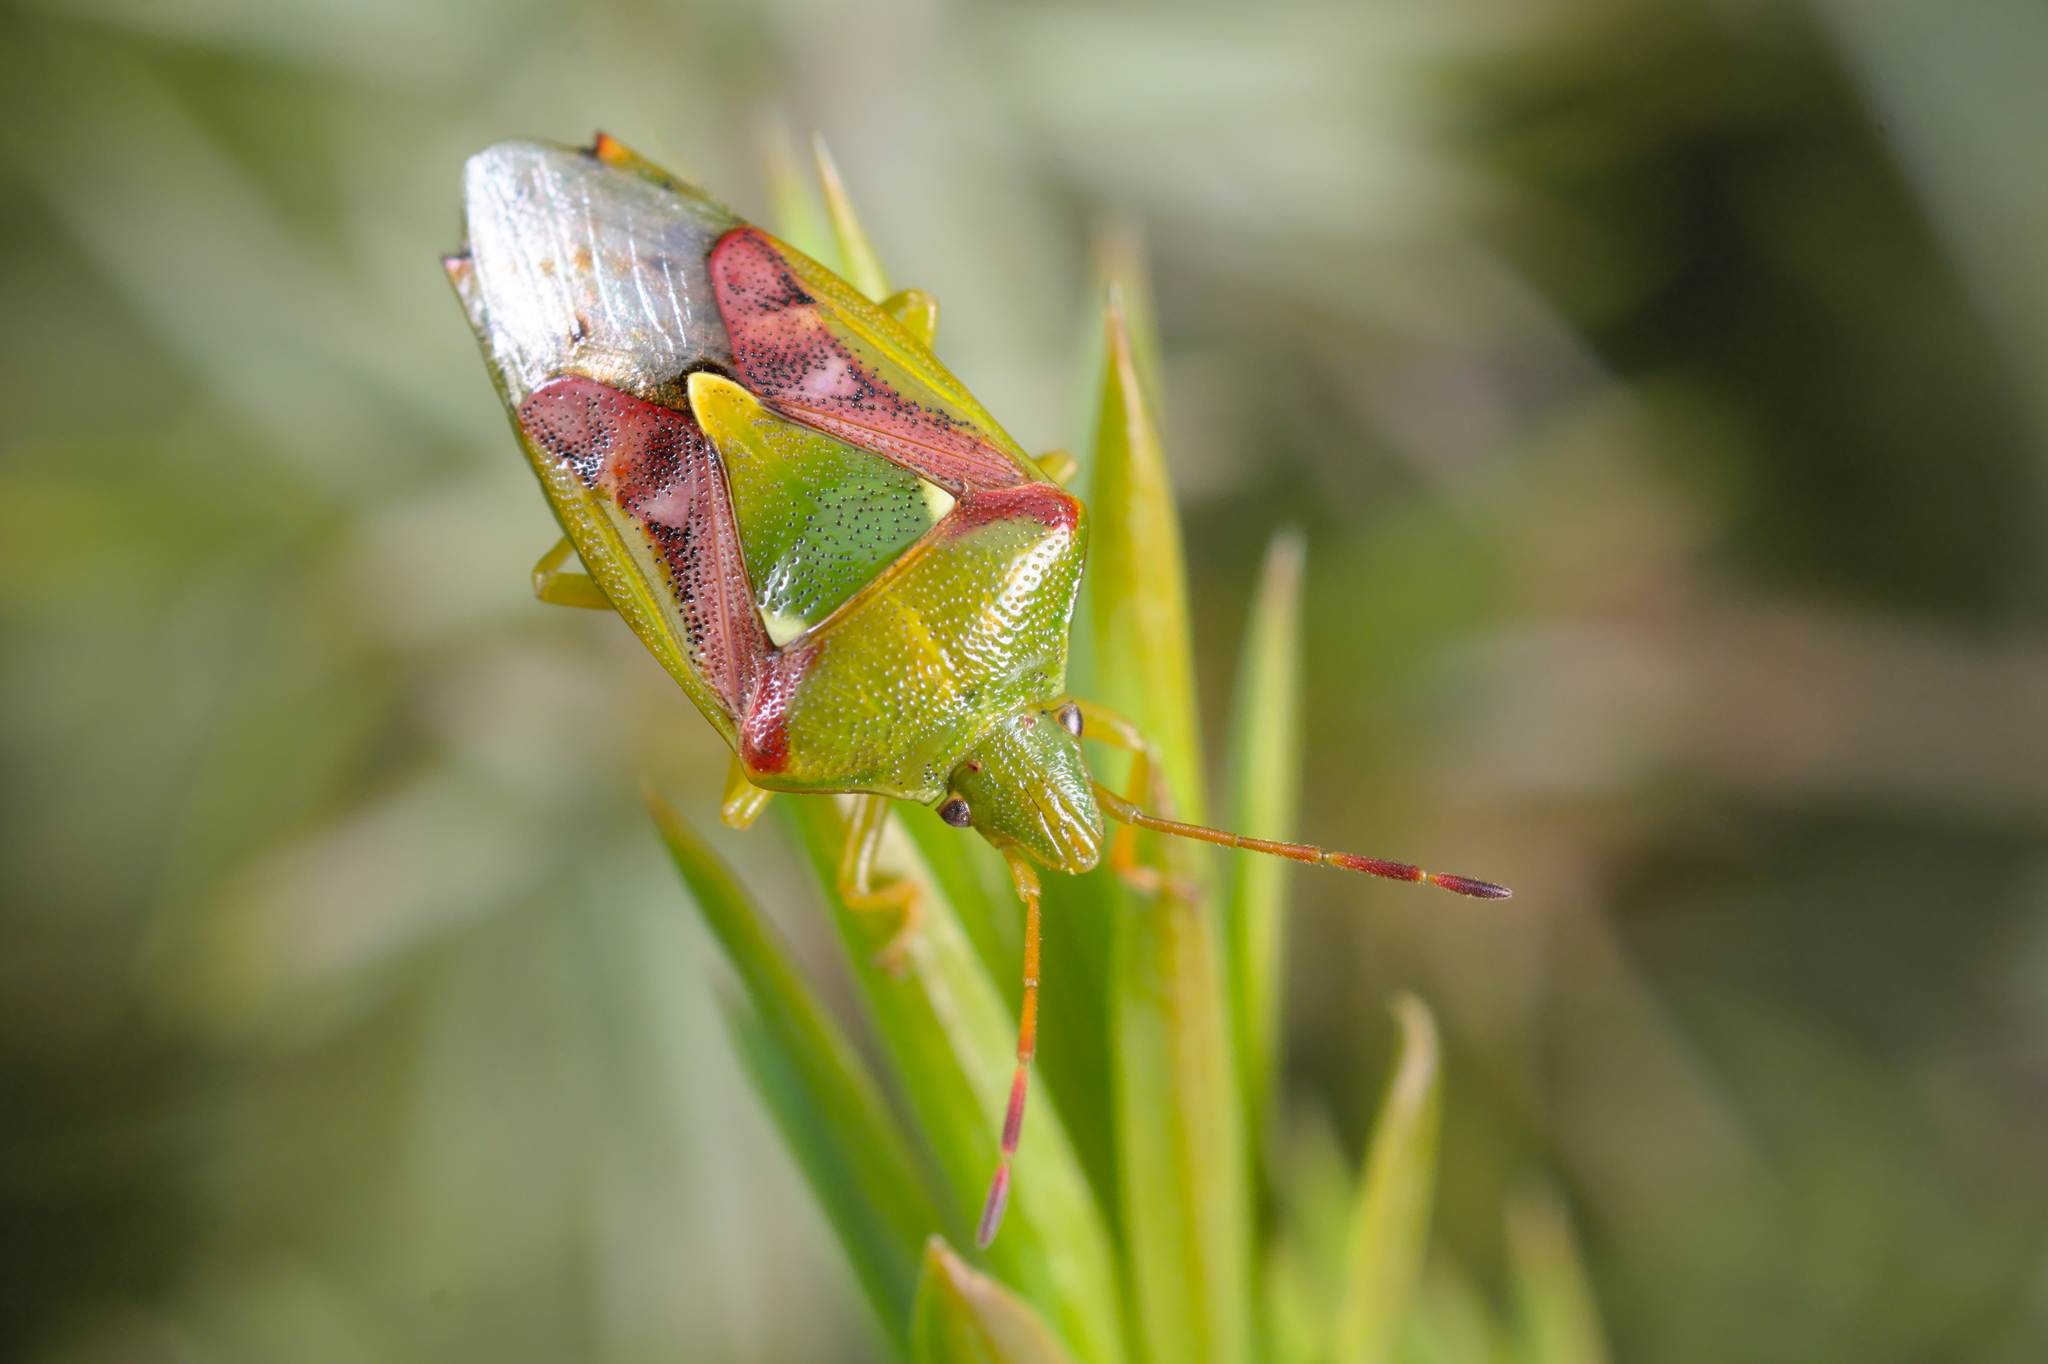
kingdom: Animalia
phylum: Arthropoda
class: Insecta
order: Hemiptera
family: Acanthosomatidae
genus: Cyphostethus
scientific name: Cyphostethus tristriatus
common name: Juniper shieldbug
